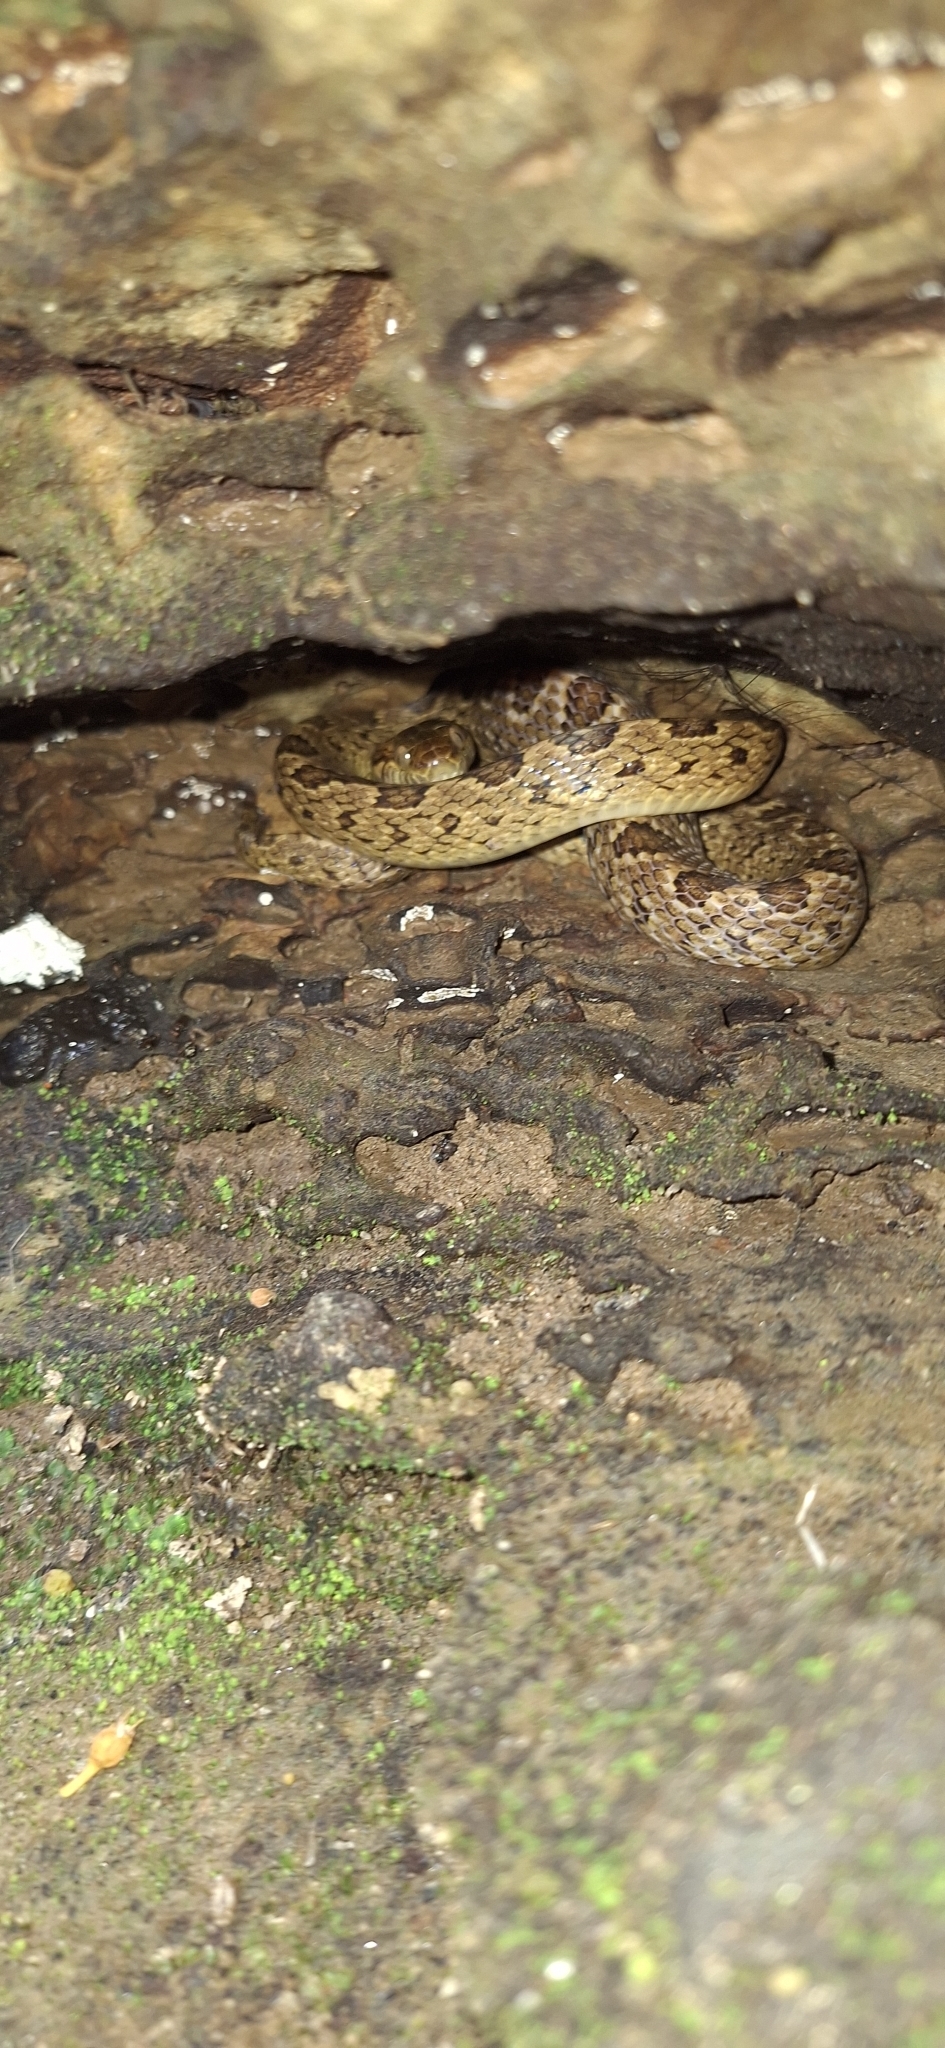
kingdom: Animalia
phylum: Chordata
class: Squamata
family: Colubridae
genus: Leptodeira
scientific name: Leptodeira rhombifera
